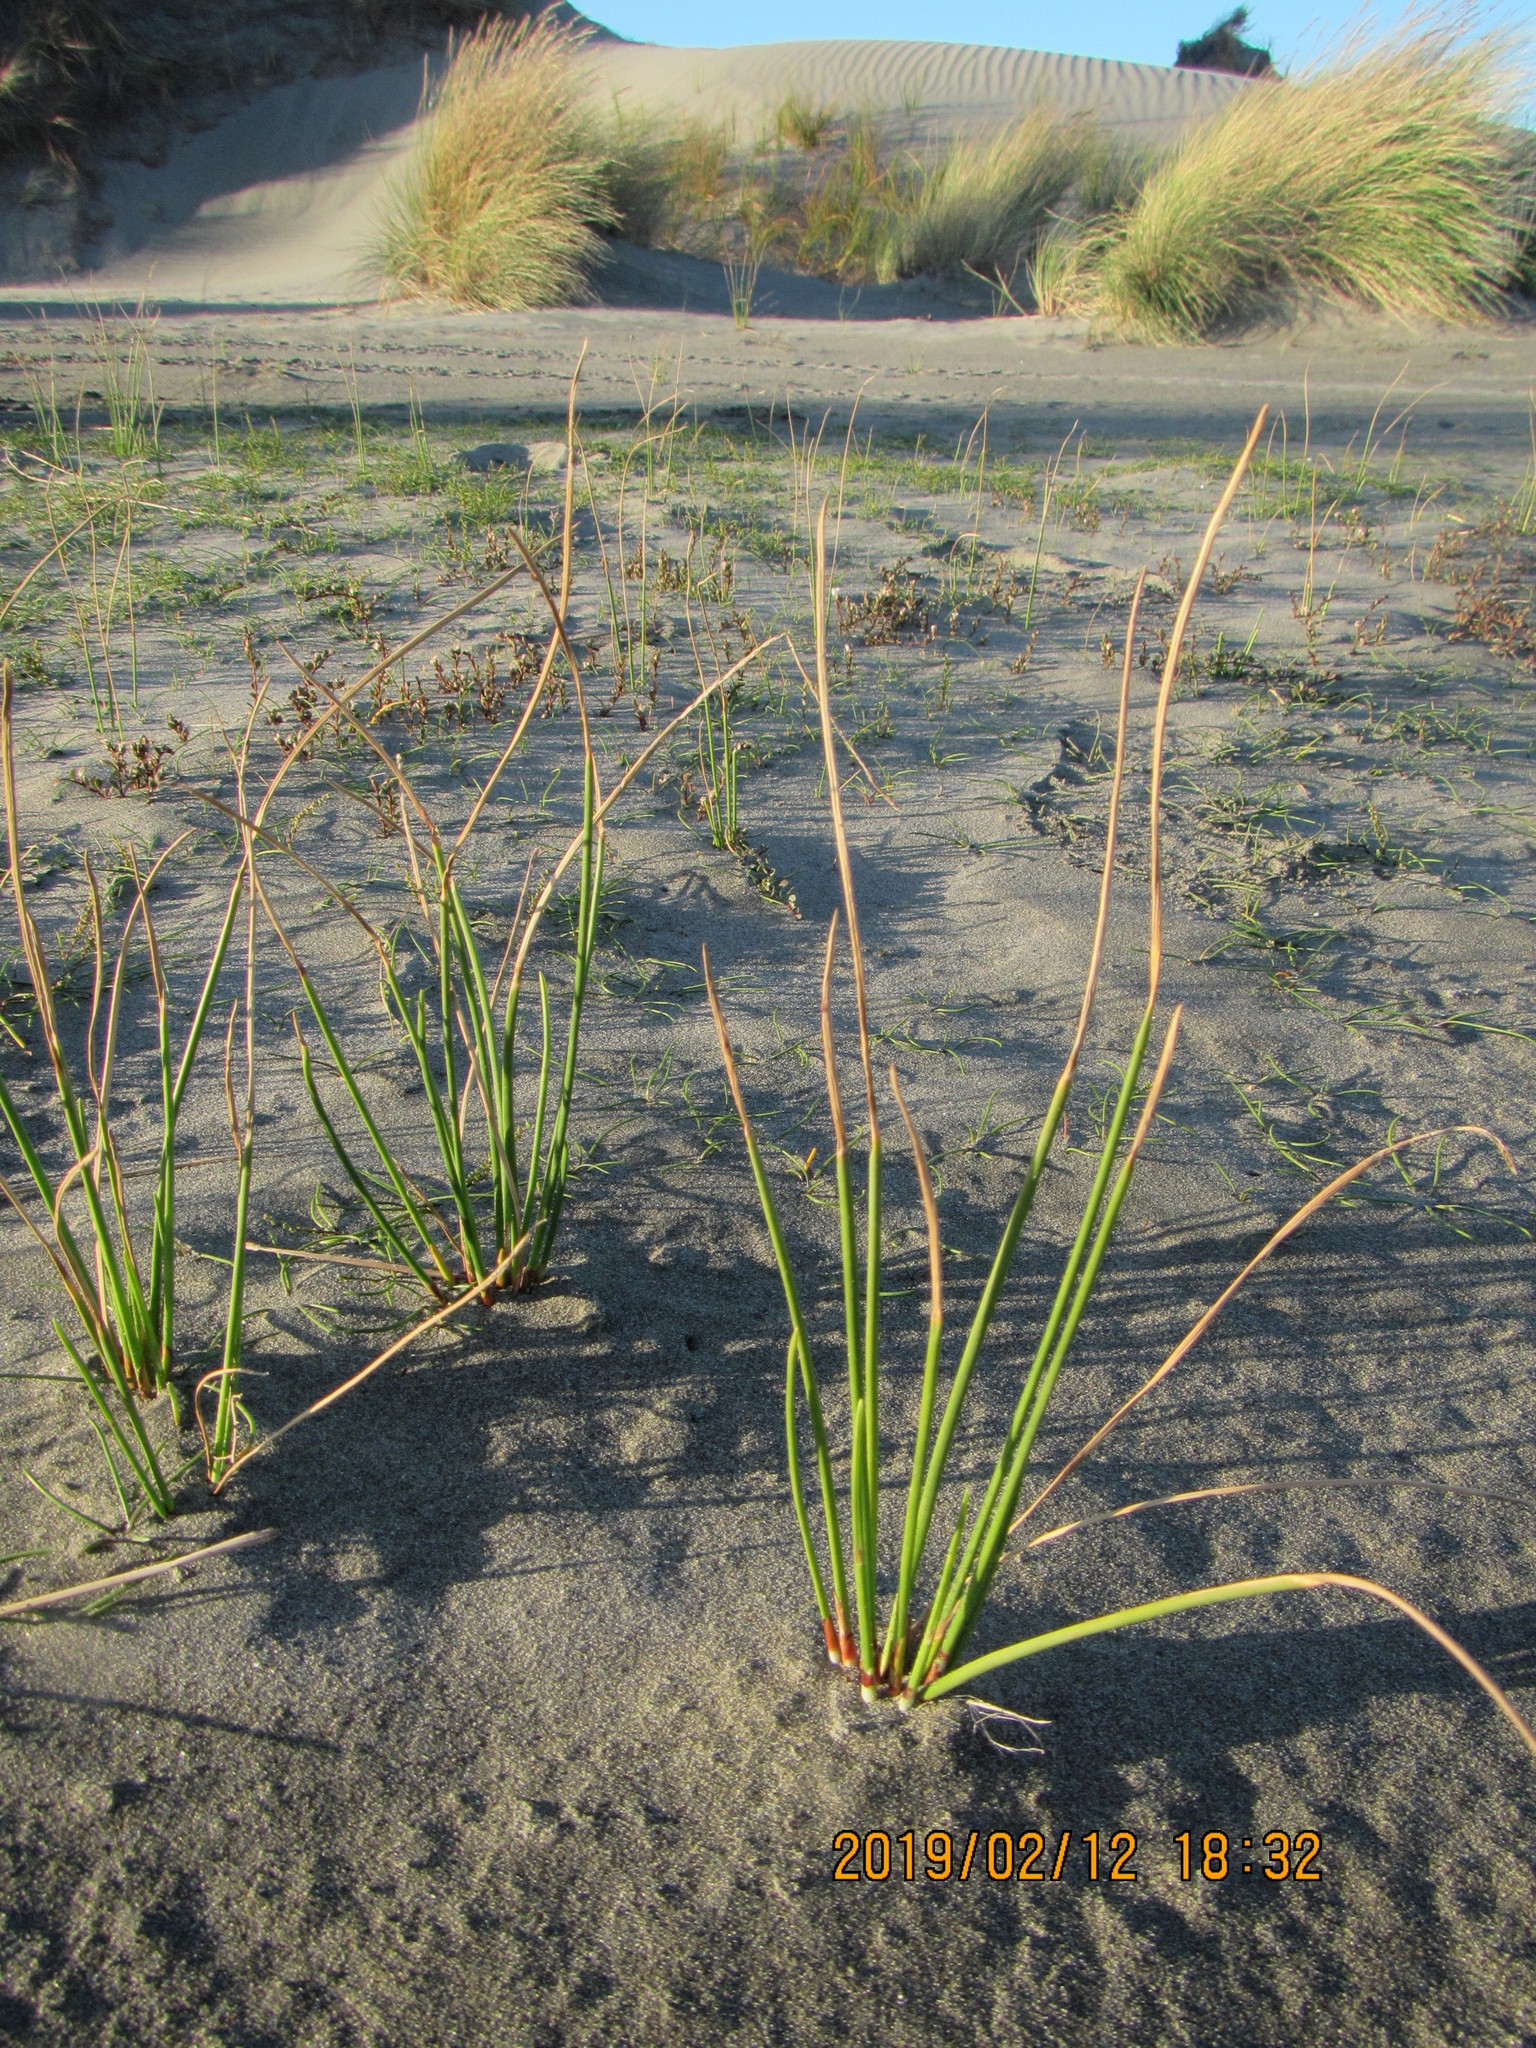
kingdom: Plantae
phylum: Tracheophyta
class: Liliopsida
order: Poales
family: Cyperaceae
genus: Ficinia
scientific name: Ficinia nodosa
